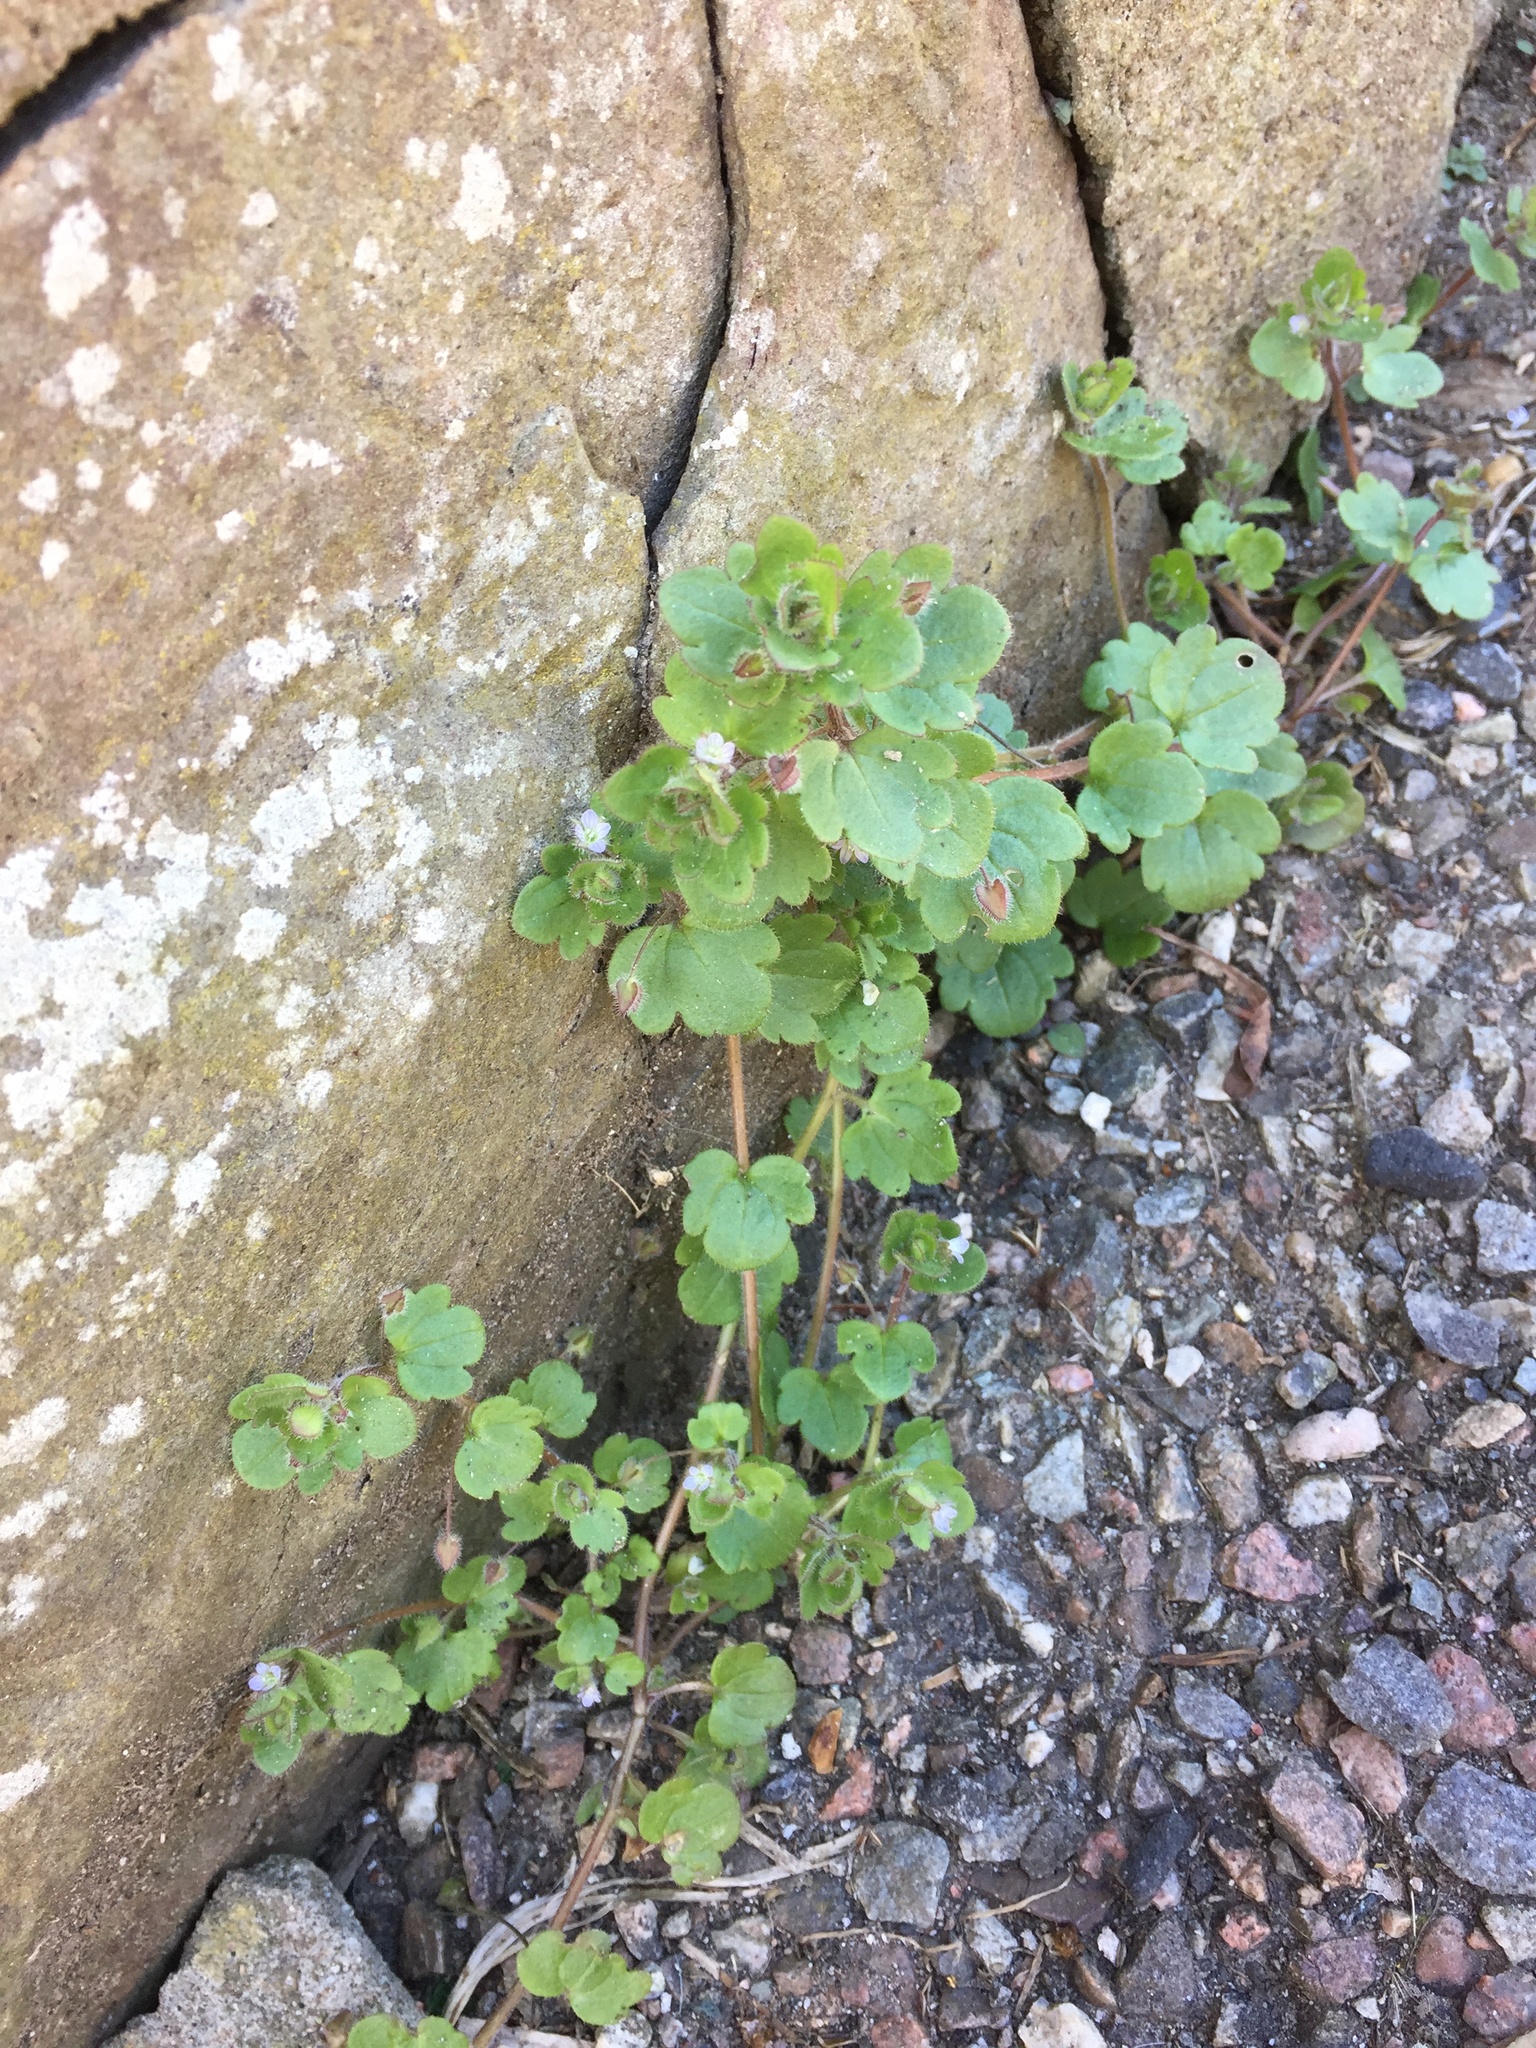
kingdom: Plantae
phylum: Tracheophyta
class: Magnoliopsida
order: Lamiales
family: Plantaginaceae
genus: Veronica
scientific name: Veronica sublobata
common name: False ivy-leaved speedwell
